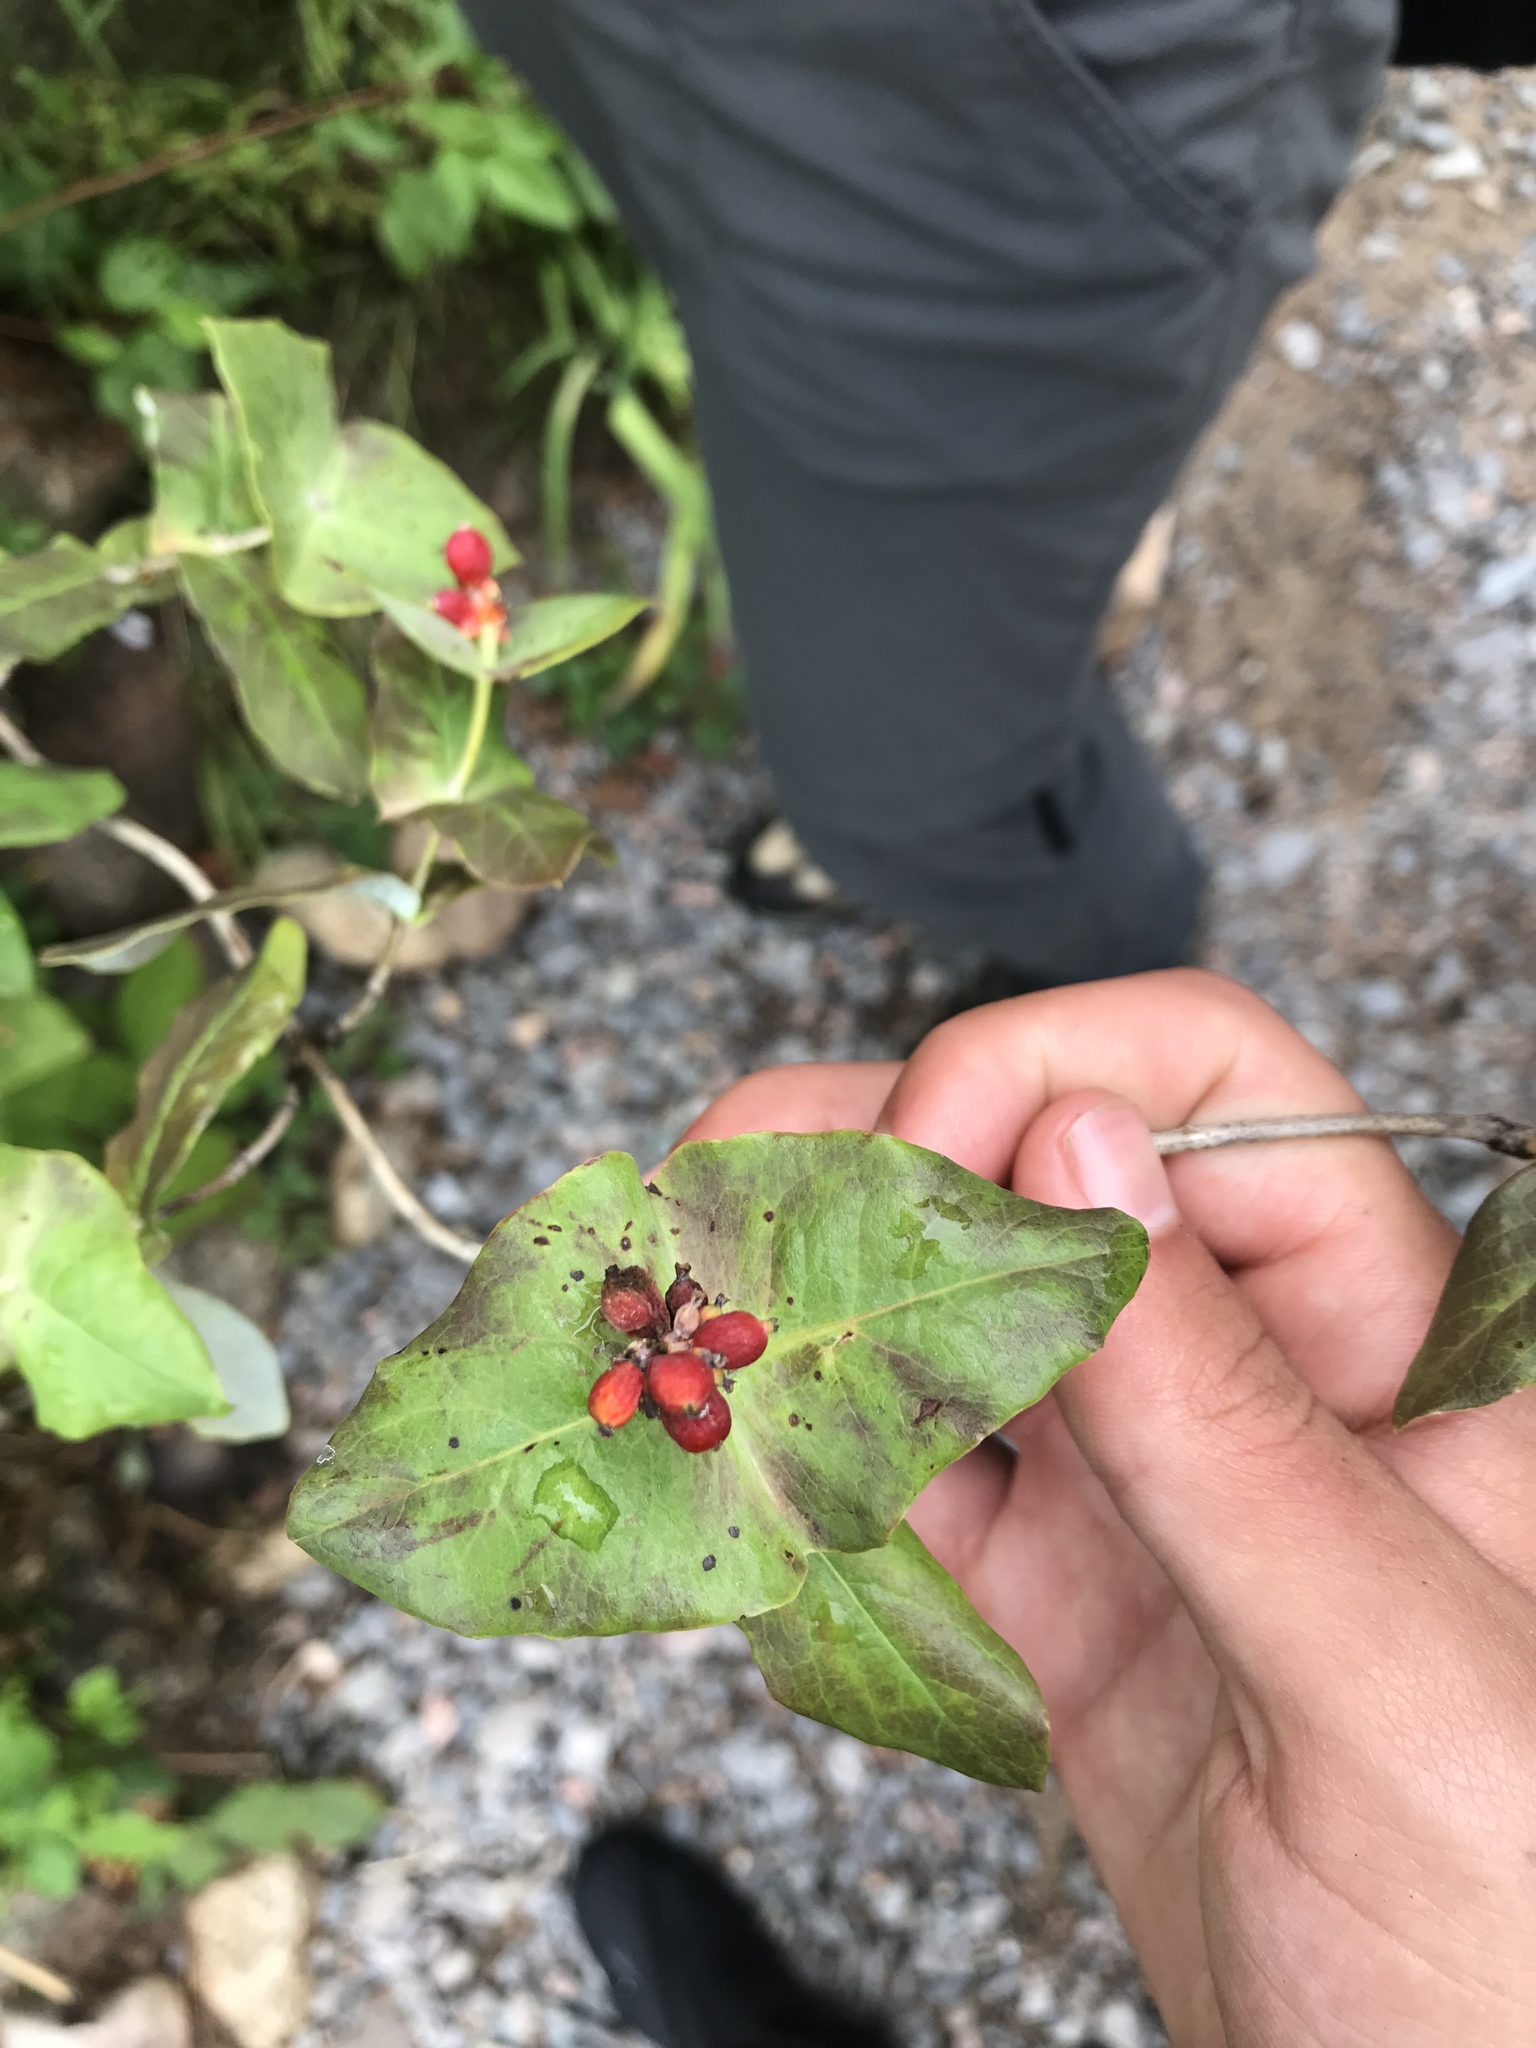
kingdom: Plantae
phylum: Tracheophyta
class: Magnoliopsida
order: Dipsacales
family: Caprifoliaceae
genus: Lonicera
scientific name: Lonicera dioica
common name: Limber honeysuckle
